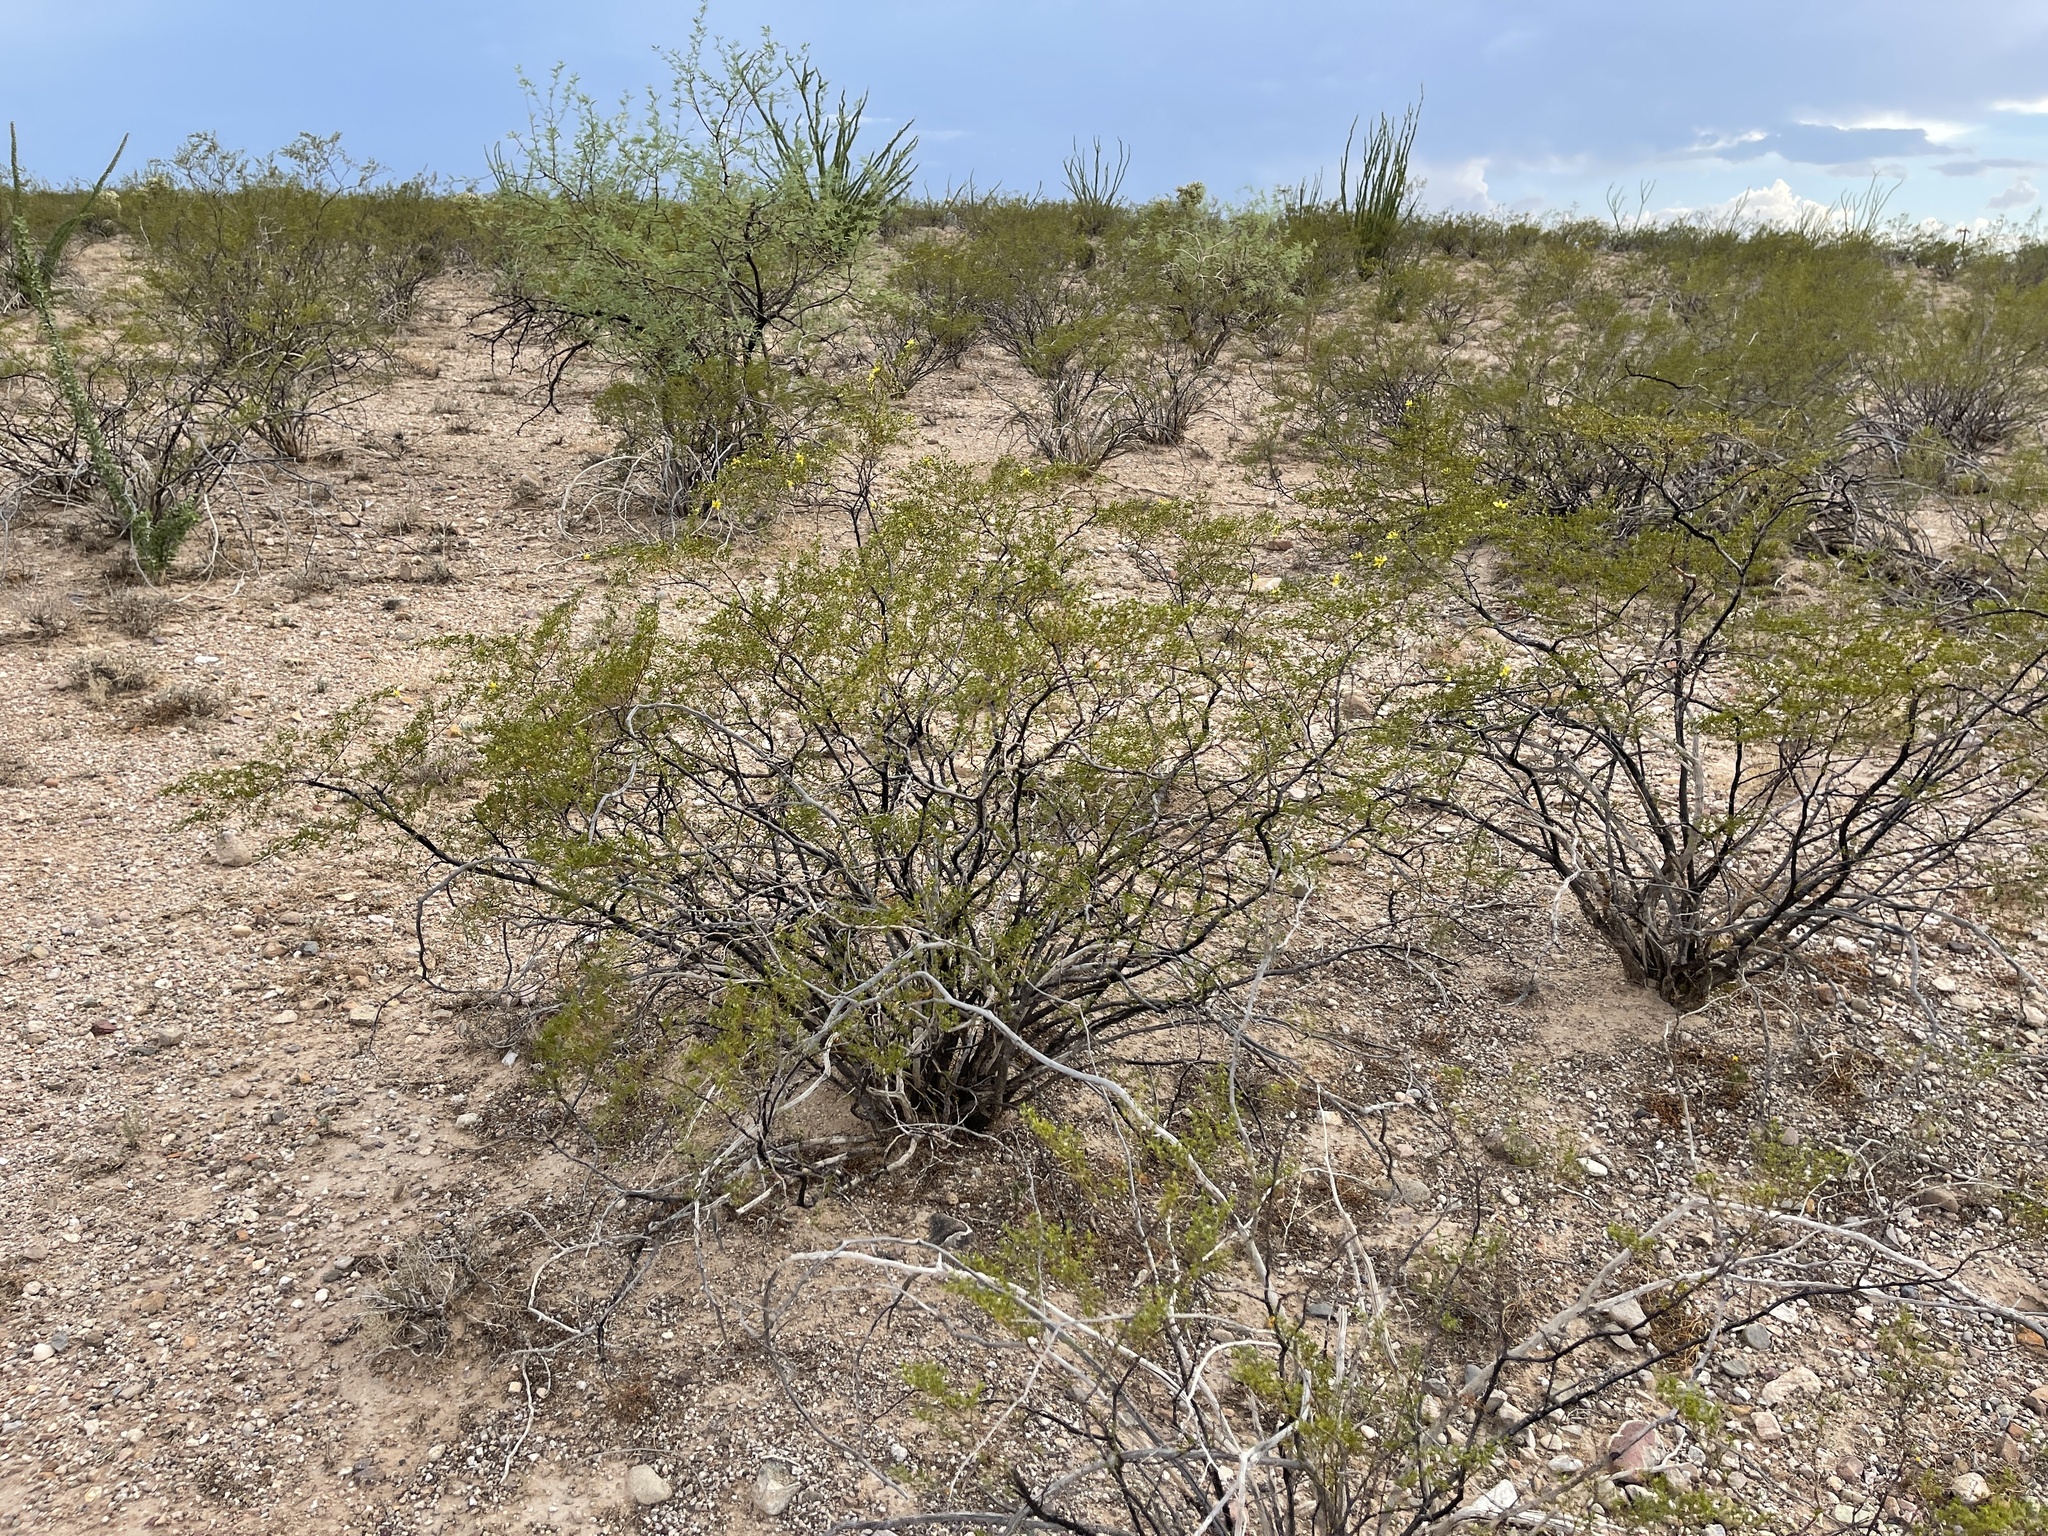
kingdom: Plantae
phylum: Tracheophyta
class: Magnoliopsida
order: Zygophyllales
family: Zygophyllaceae
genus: Larrea
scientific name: Larrea tridentata
